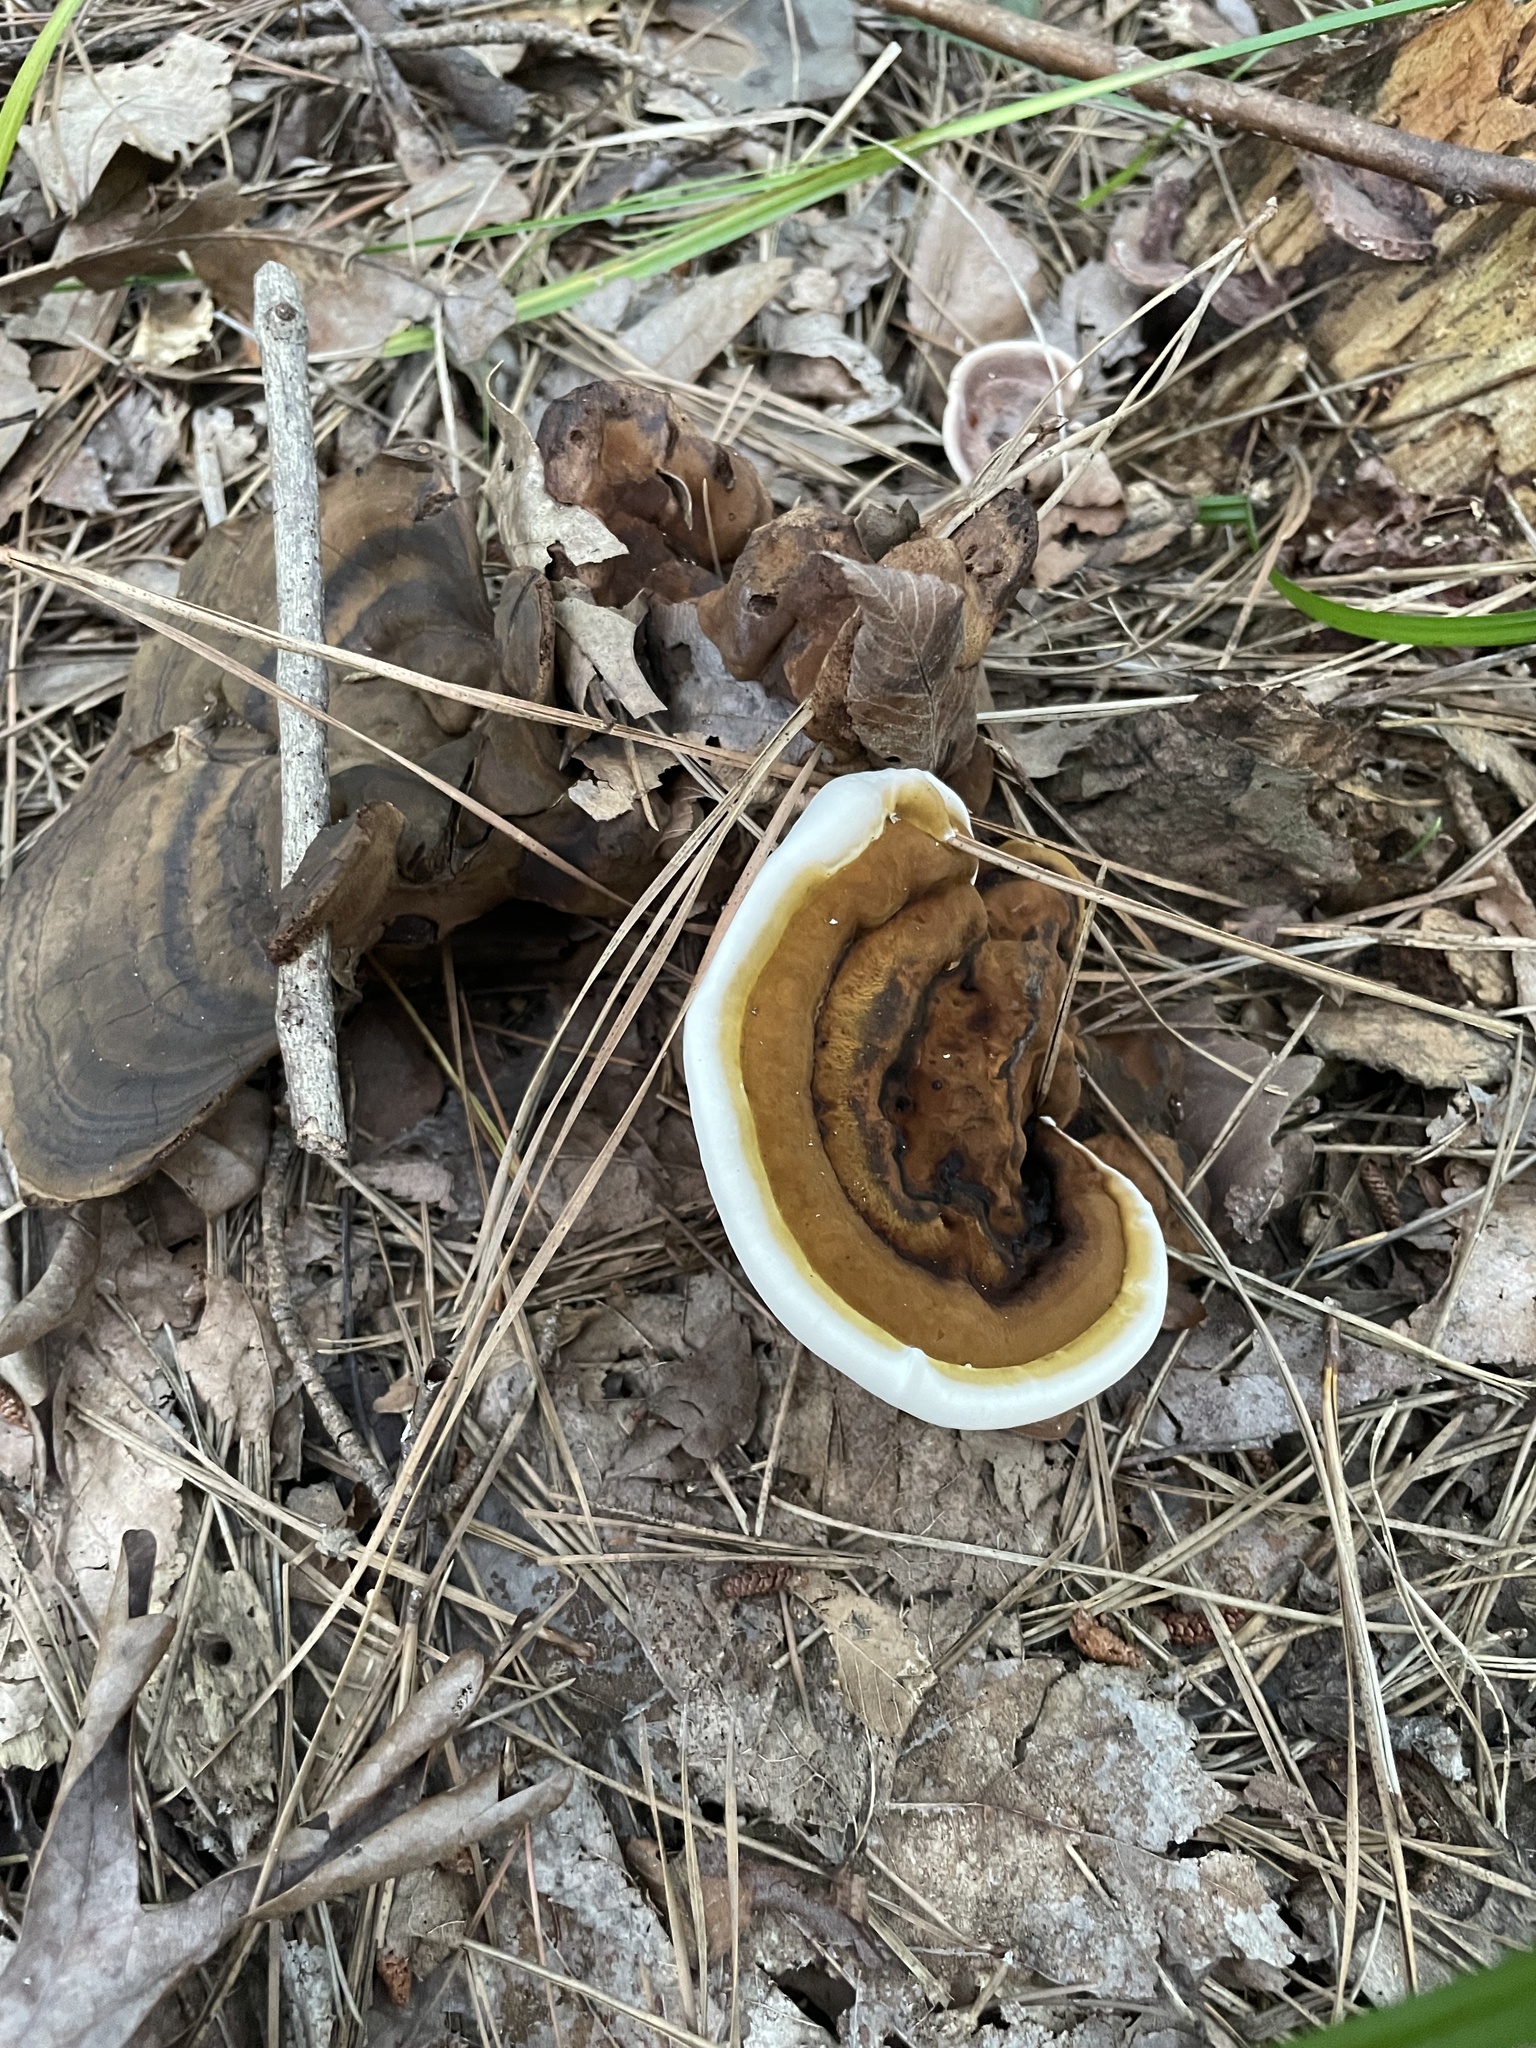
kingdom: Fungi
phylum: Basidiomycota
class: Agaricomycetes
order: Polyporales
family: Polyporaceae
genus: Ganoderma
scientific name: Ganoderma lobatum
